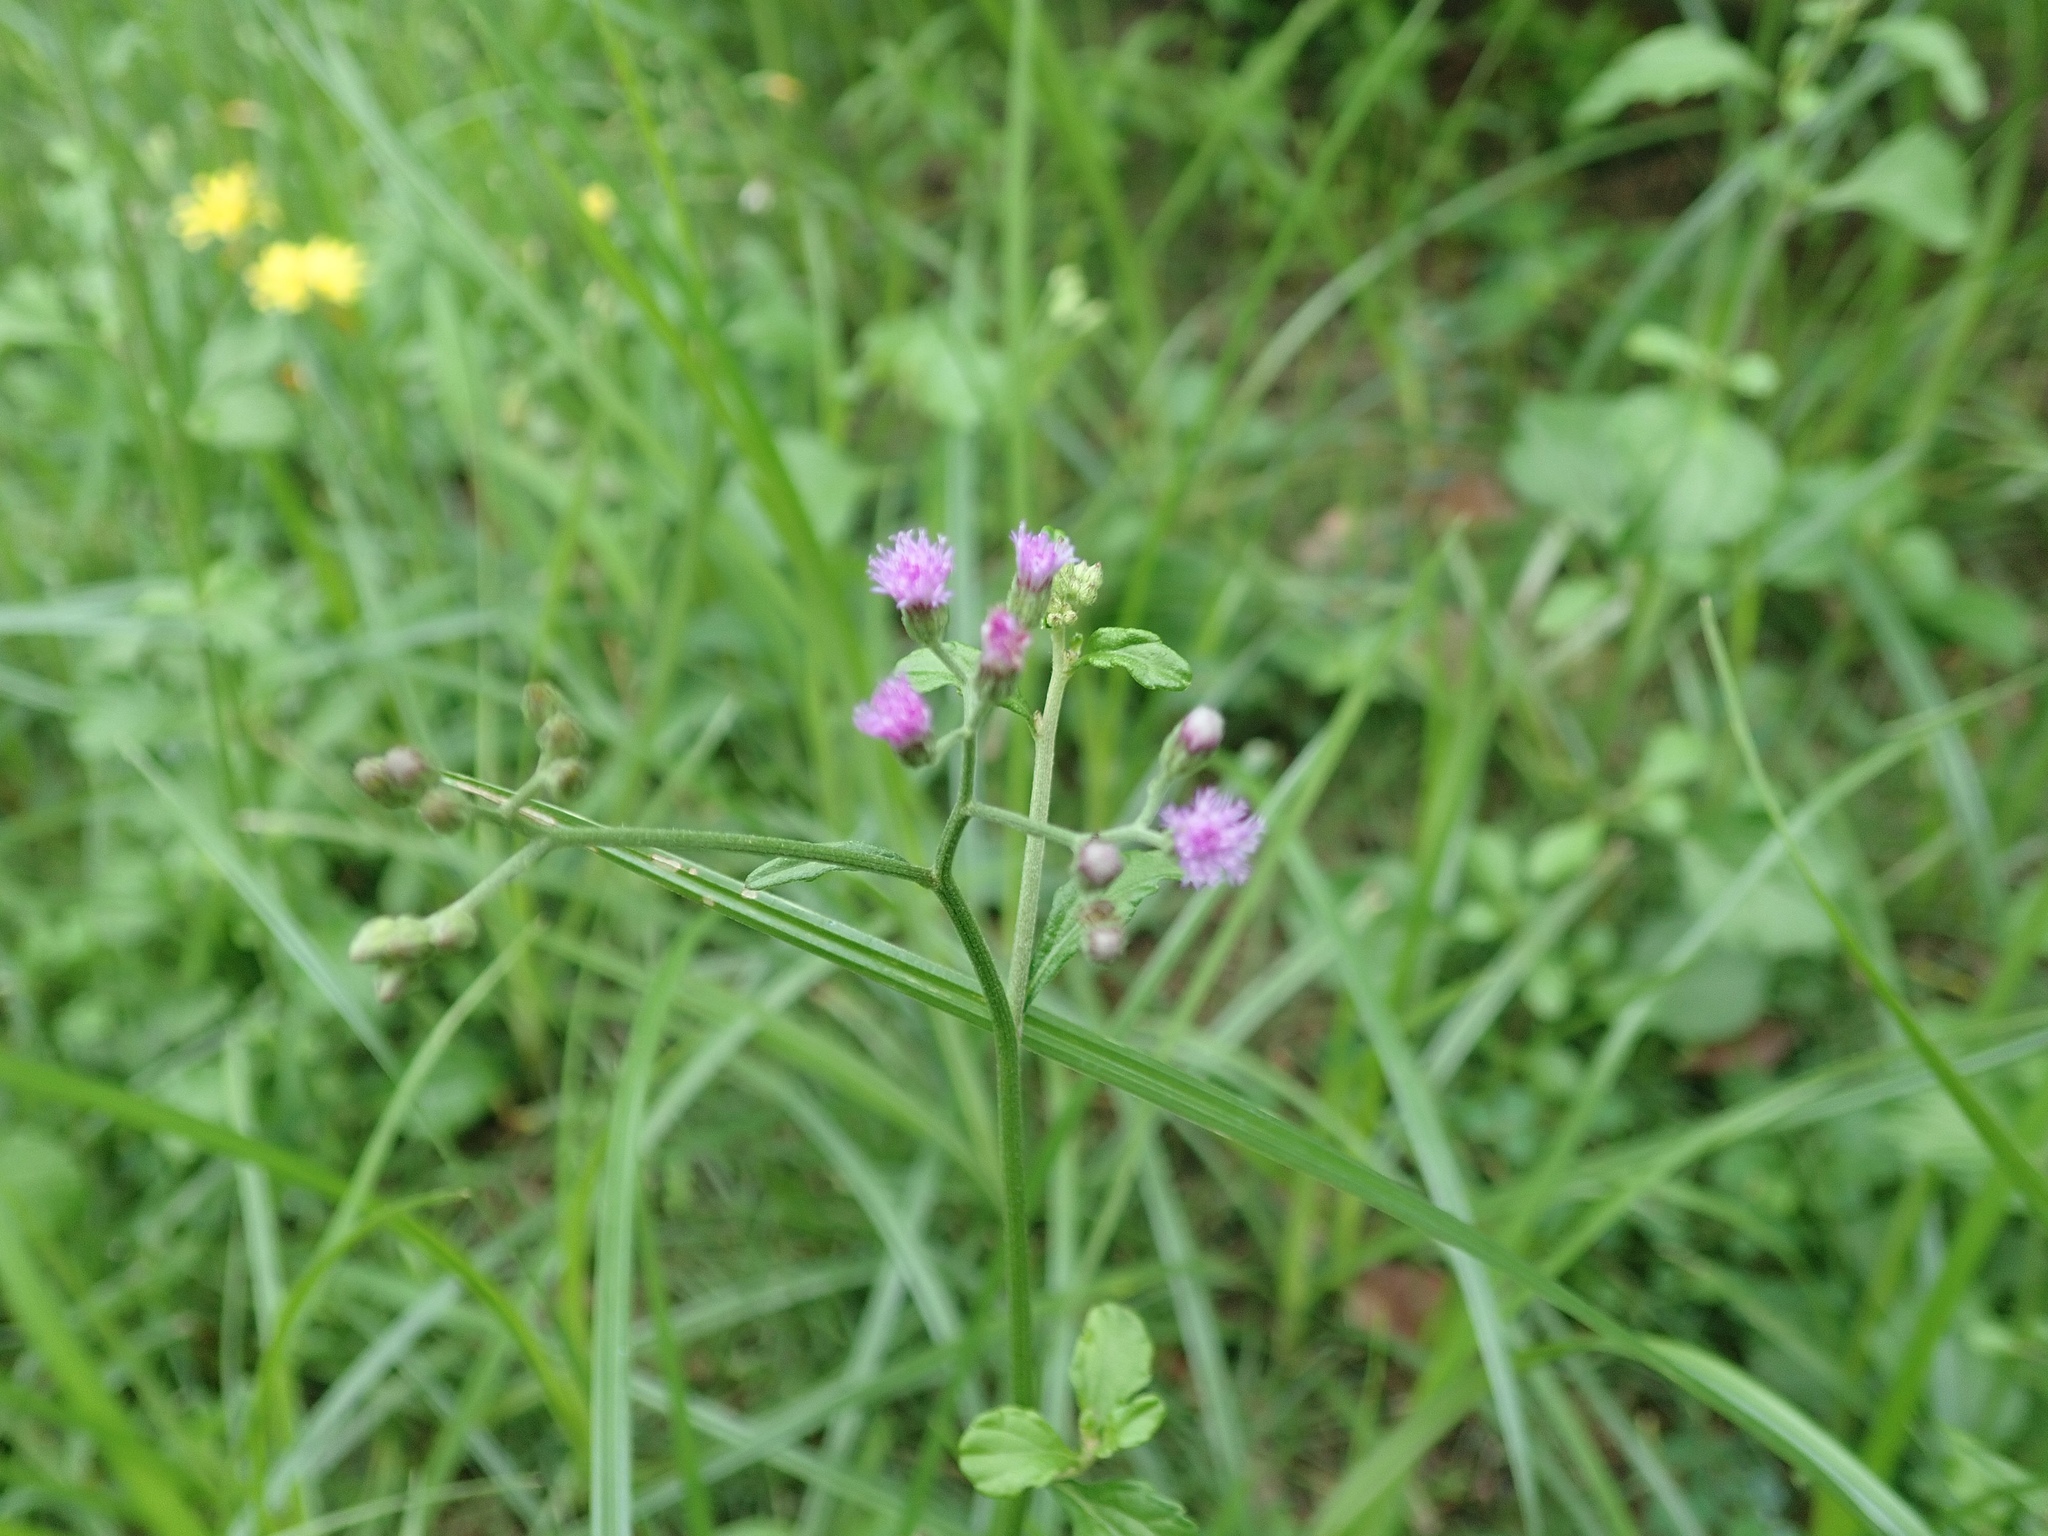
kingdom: Plantae
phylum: Tracheophyta
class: Magnoliopsida
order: Asterales
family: Asteraceae
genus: Cyanthillium
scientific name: Cyanthillium cinereum
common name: Little ironweed
